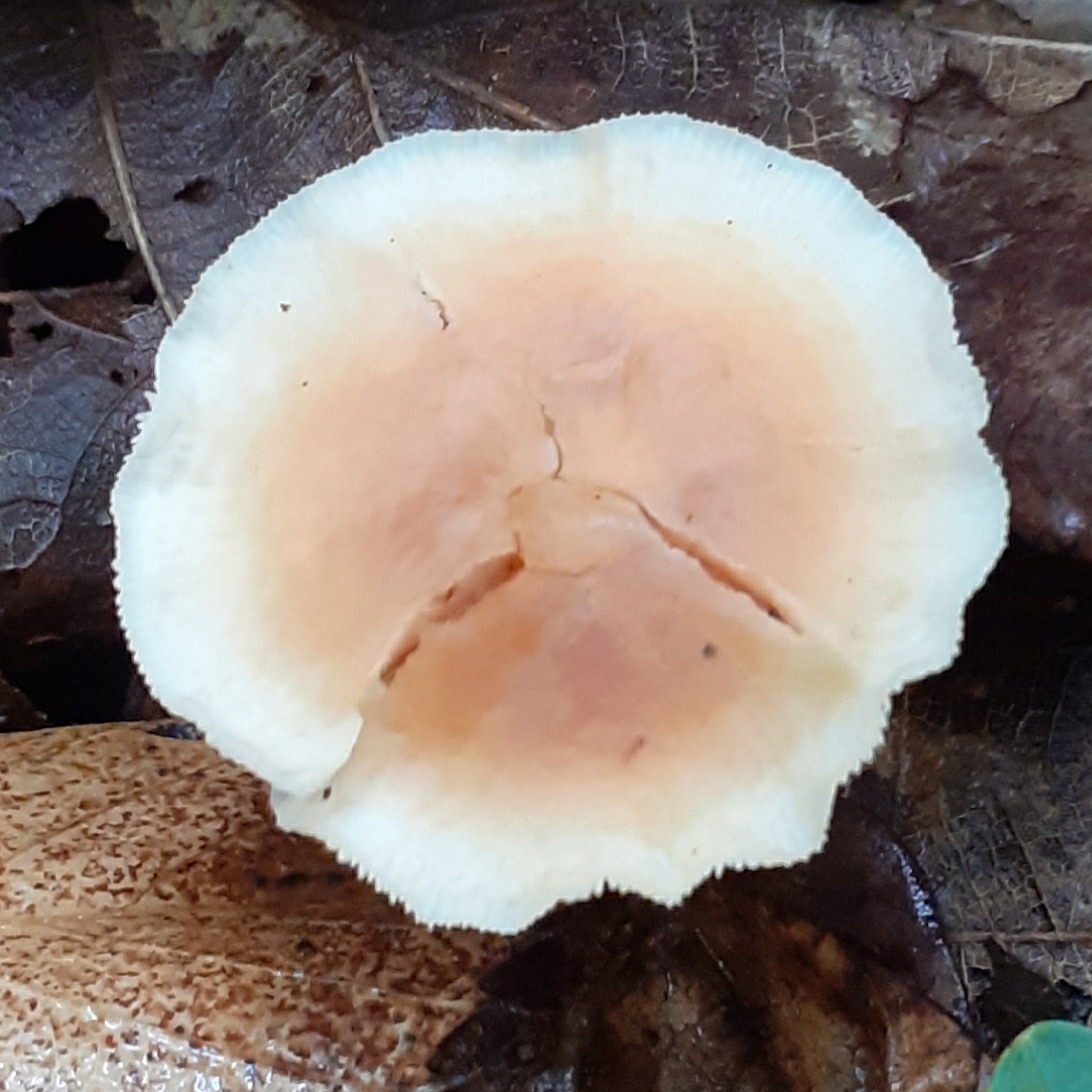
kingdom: Fungi
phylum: Basidiomycota
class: Agaricomycetes
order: Agaricales
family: Omphalotaceae
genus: Rhodocollybia
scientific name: Rhodocollybia butyracea
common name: Butter cap
